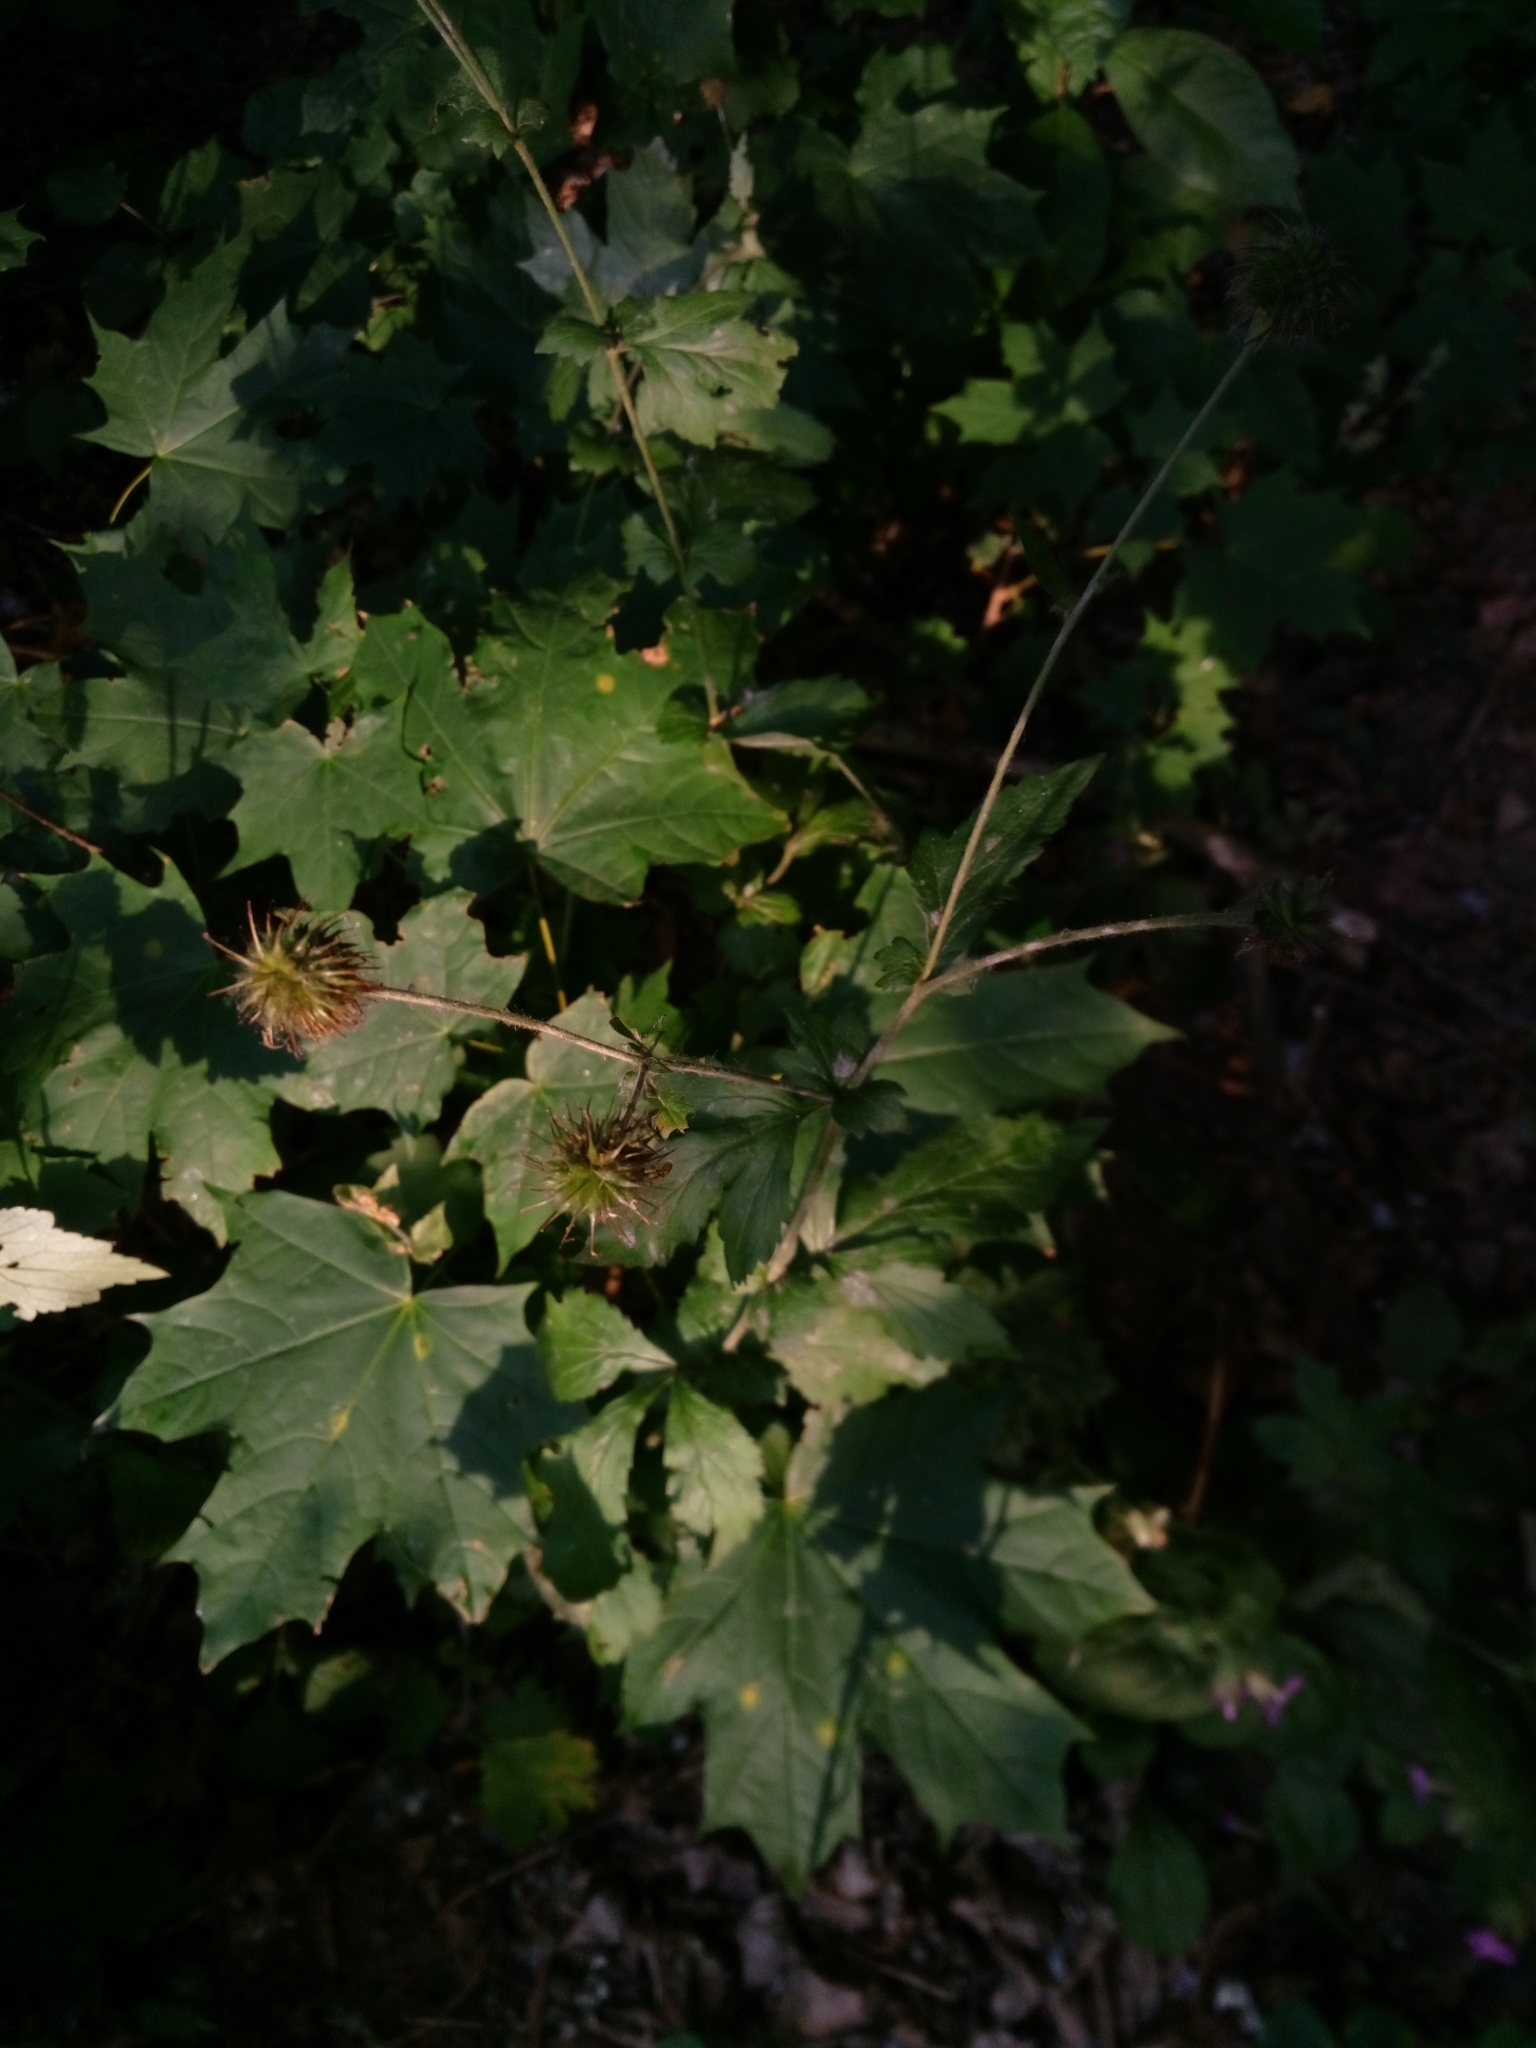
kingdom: Plantae
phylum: Tracheophyta
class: Magnoliopsida
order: Rosales
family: Rosaceae
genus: Geum
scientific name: Geum urbanum
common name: Wood avens
